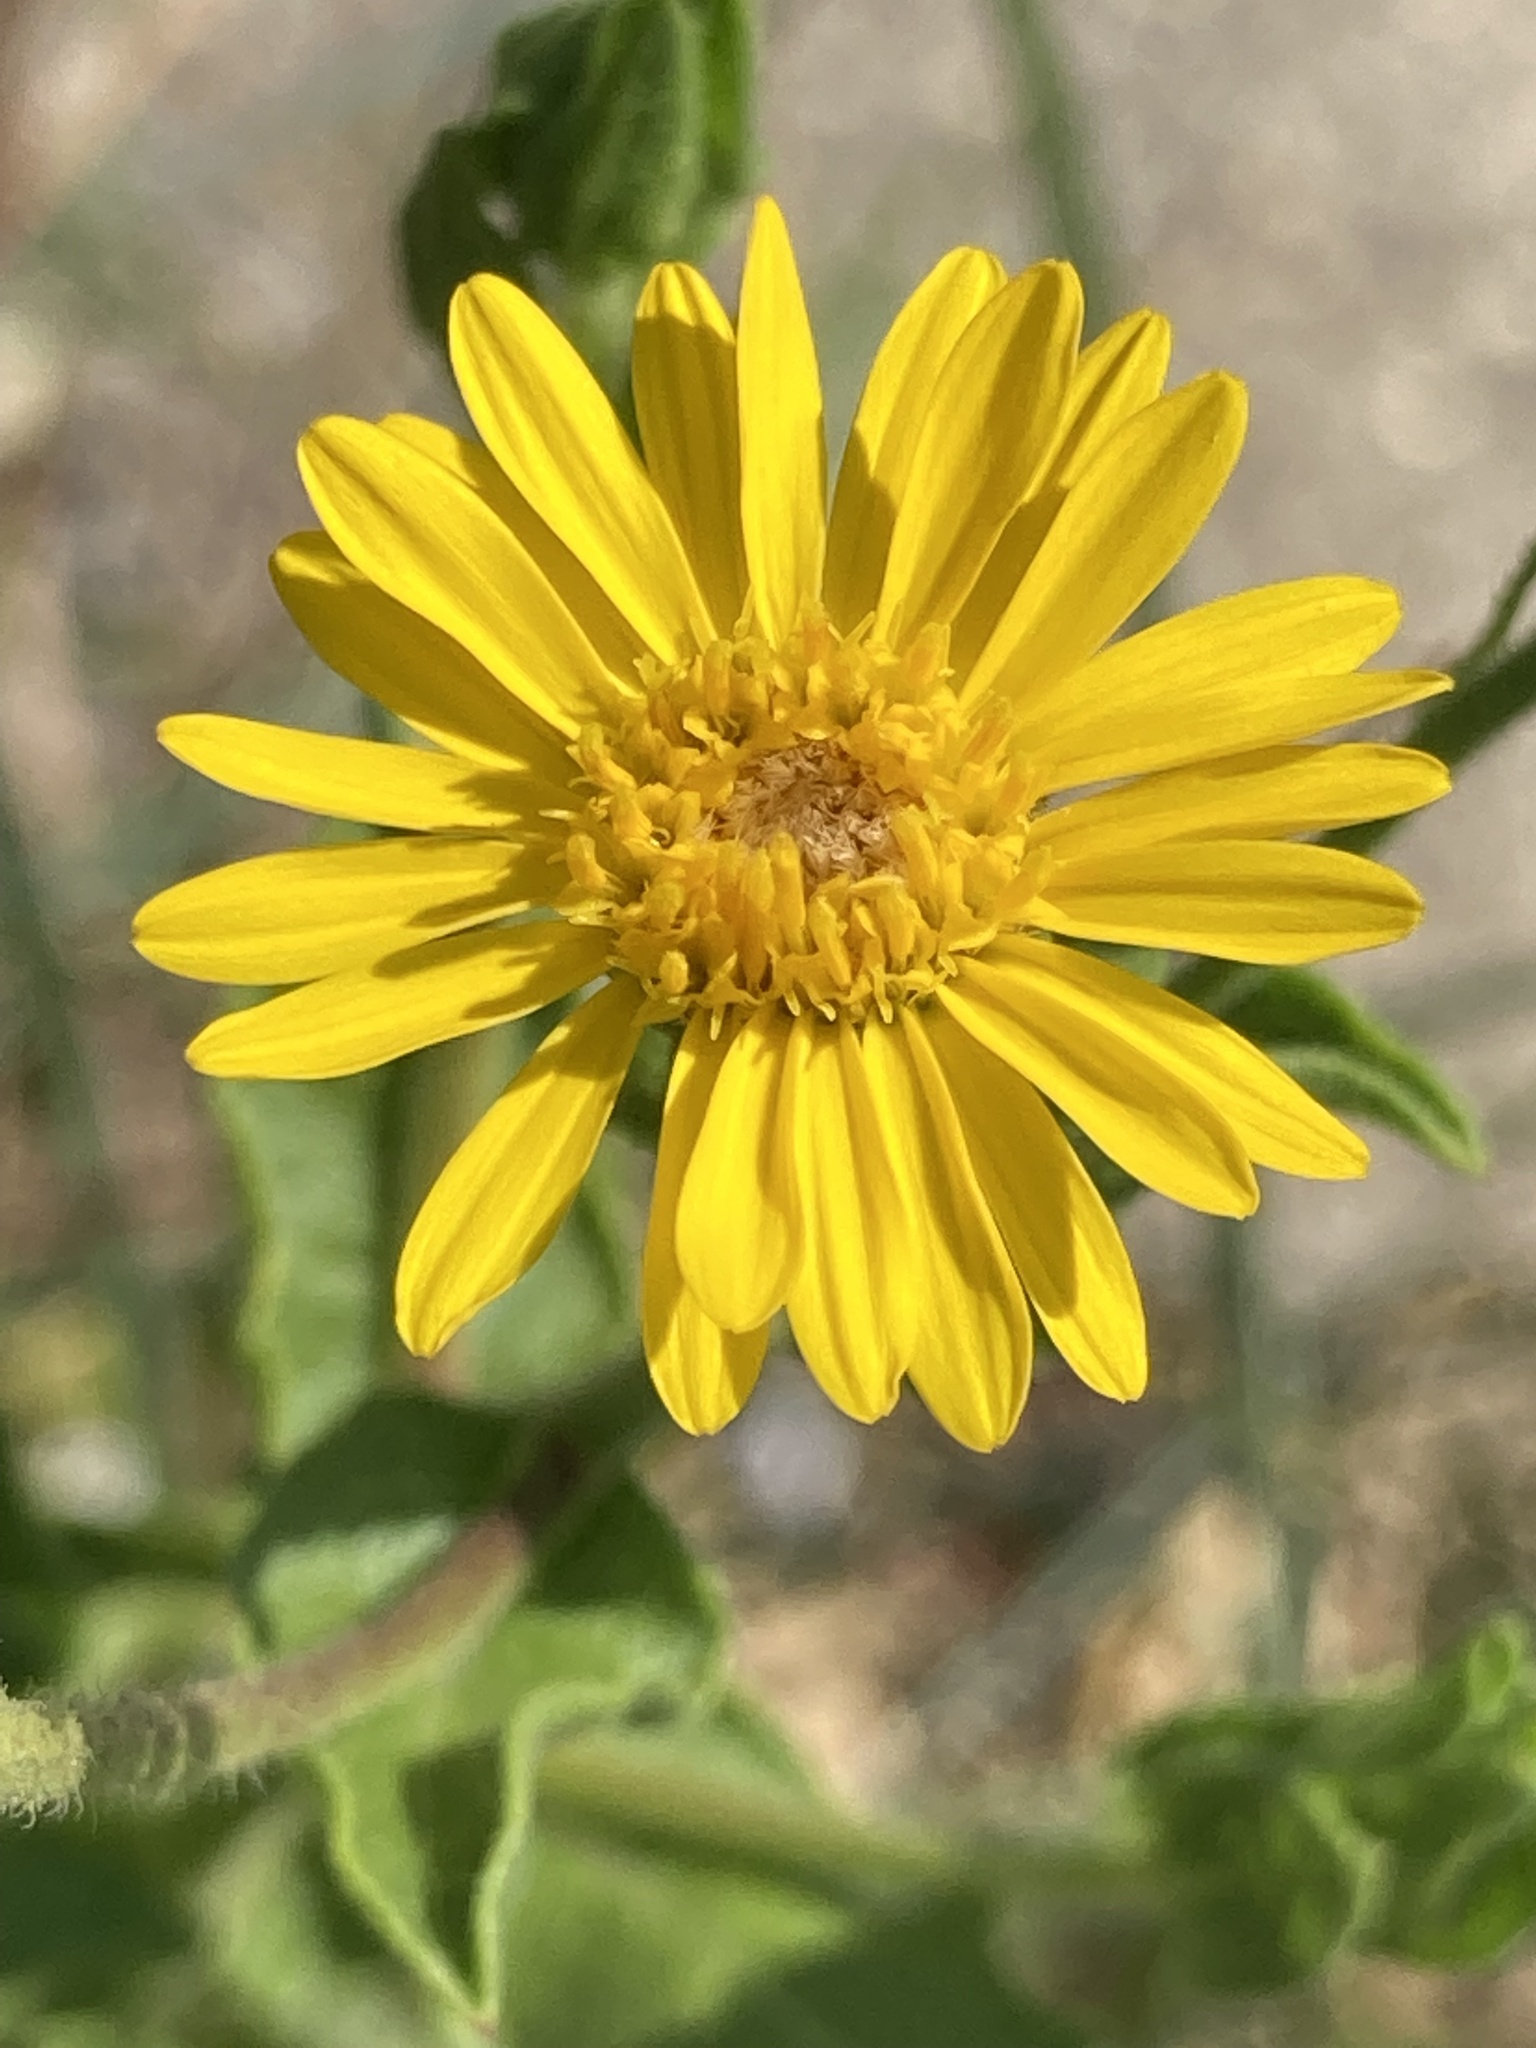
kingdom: Plantae
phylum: Tracheophyta
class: Magnoliopsida
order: Asterales
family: Asteraceae
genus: Heterotheca
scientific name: Heterotheca subaxillaris
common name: Camphorweed
